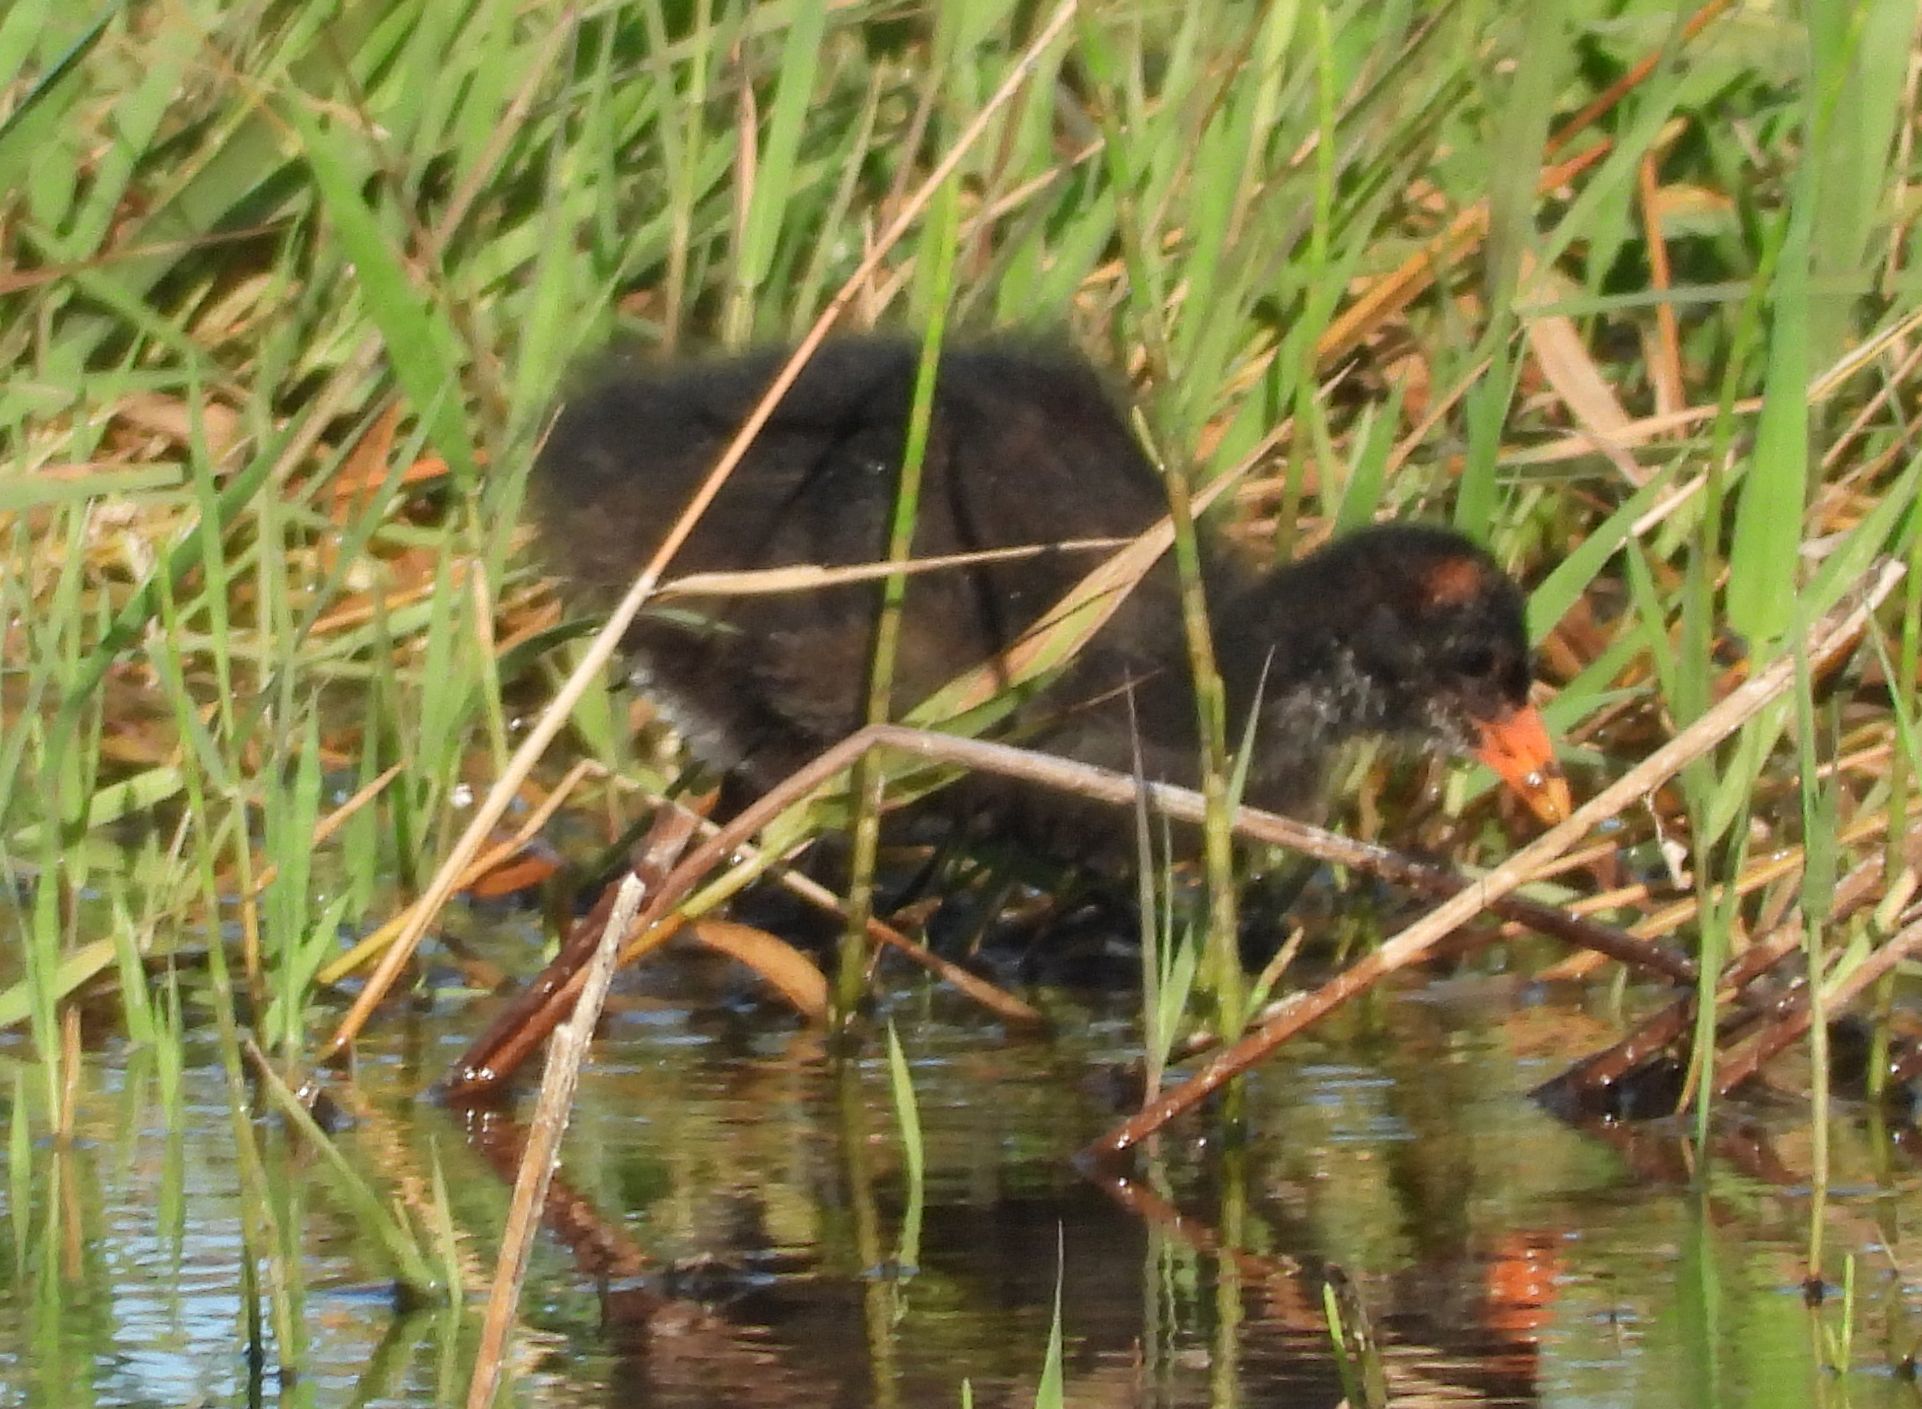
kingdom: Animalia
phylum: Chordata
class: Aves
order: Gruiformes
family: Rallidae
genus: Gallinula
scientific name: Gallinula chloropus
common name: Common moorhen
